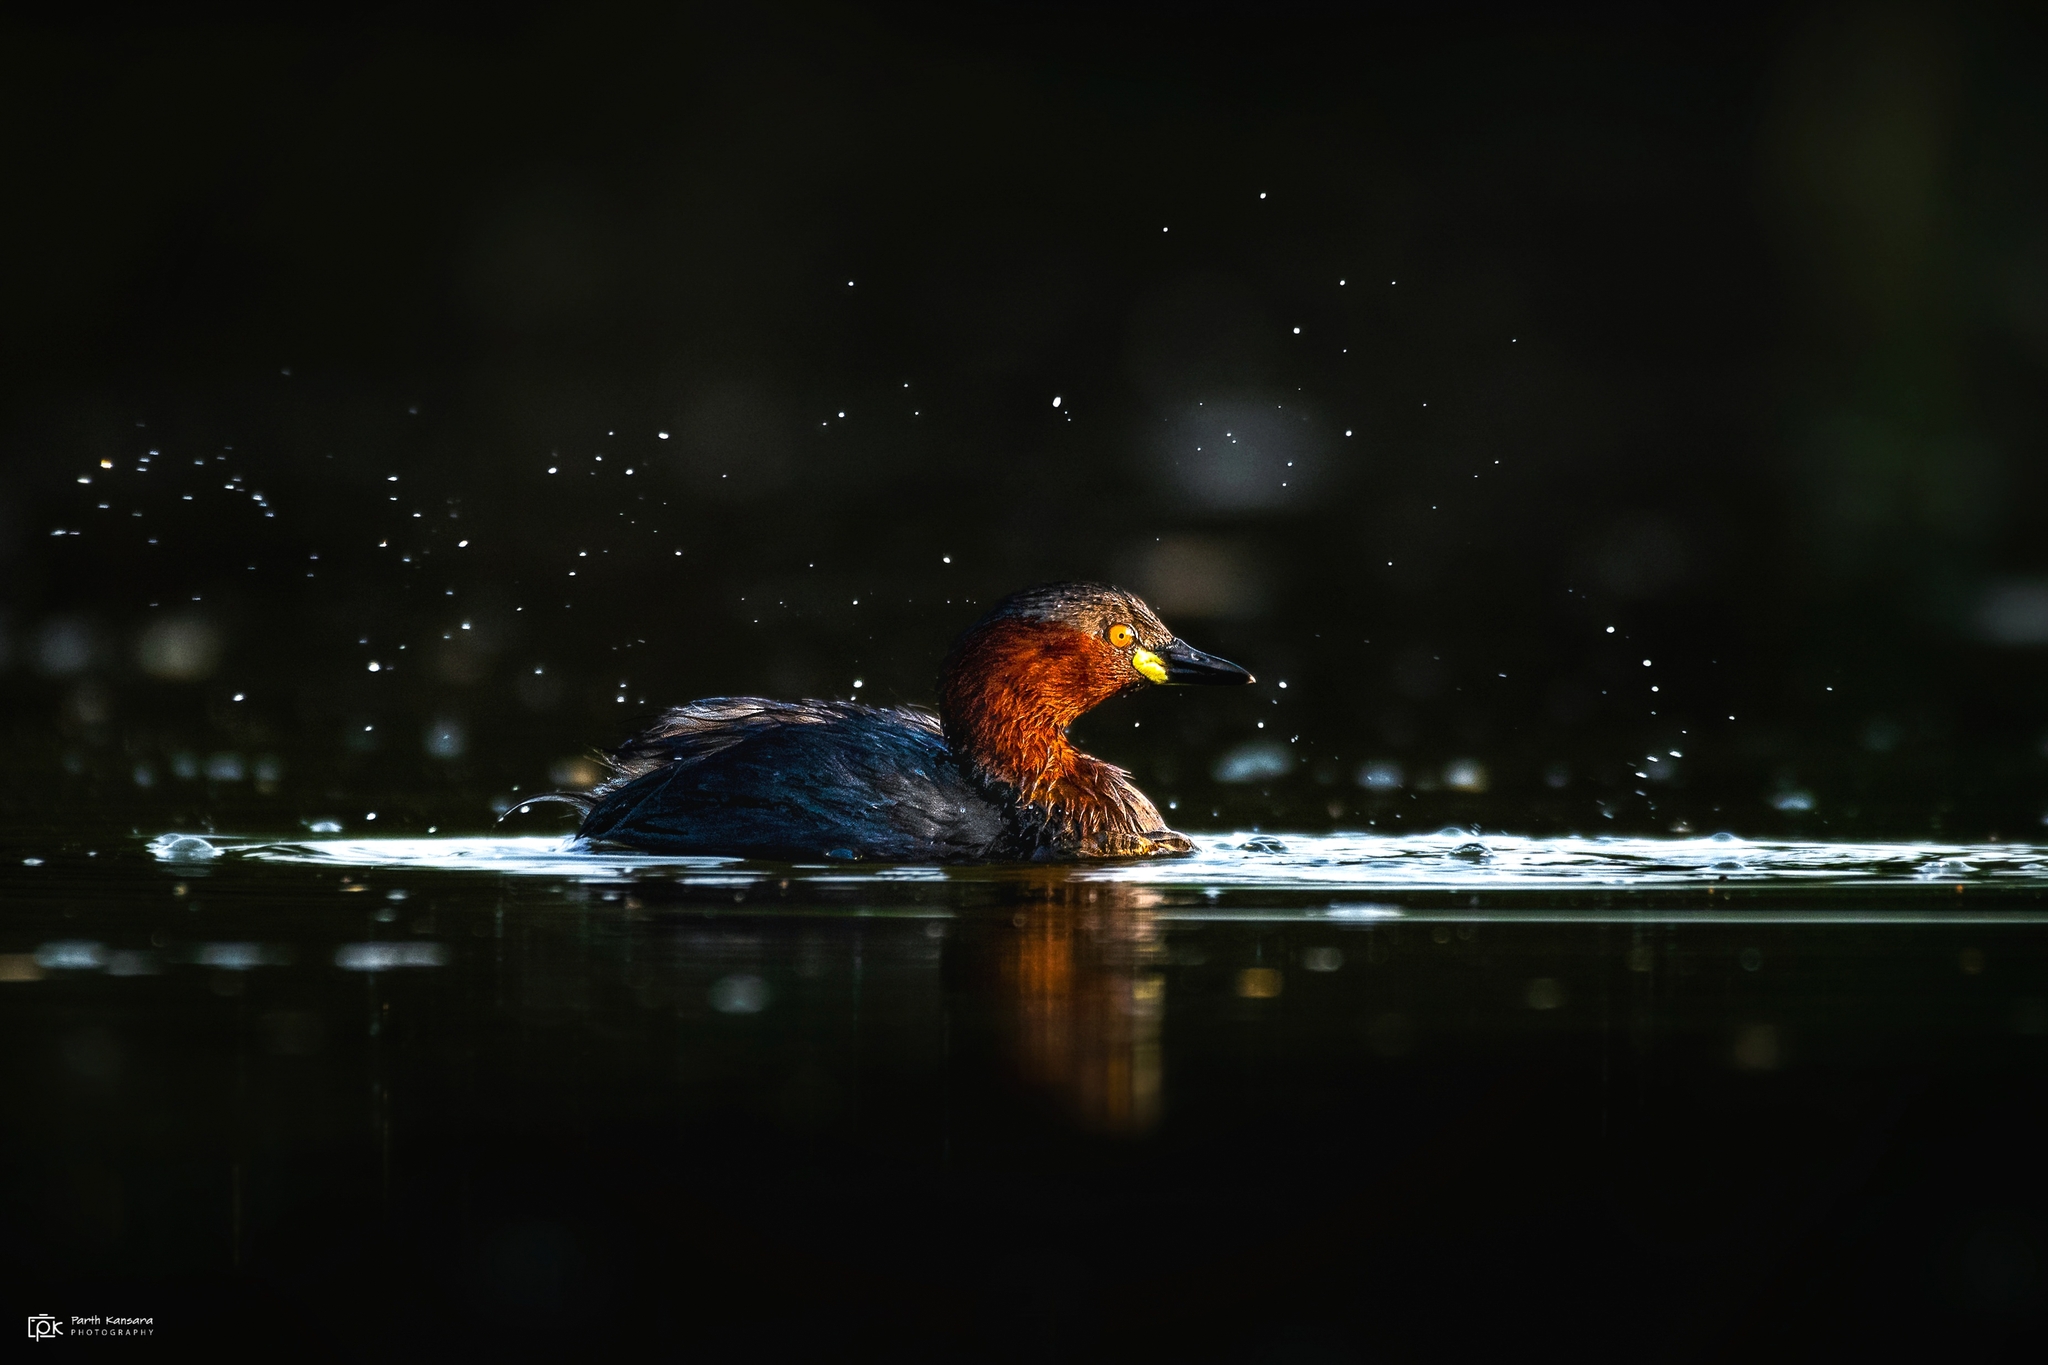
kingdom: Animalia
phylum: Chordata
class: Aves
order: Podicipediformes
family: Podicipedidae
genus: Tachybaptus
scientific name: Tachybaptus ruficollis
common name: Little grebe
